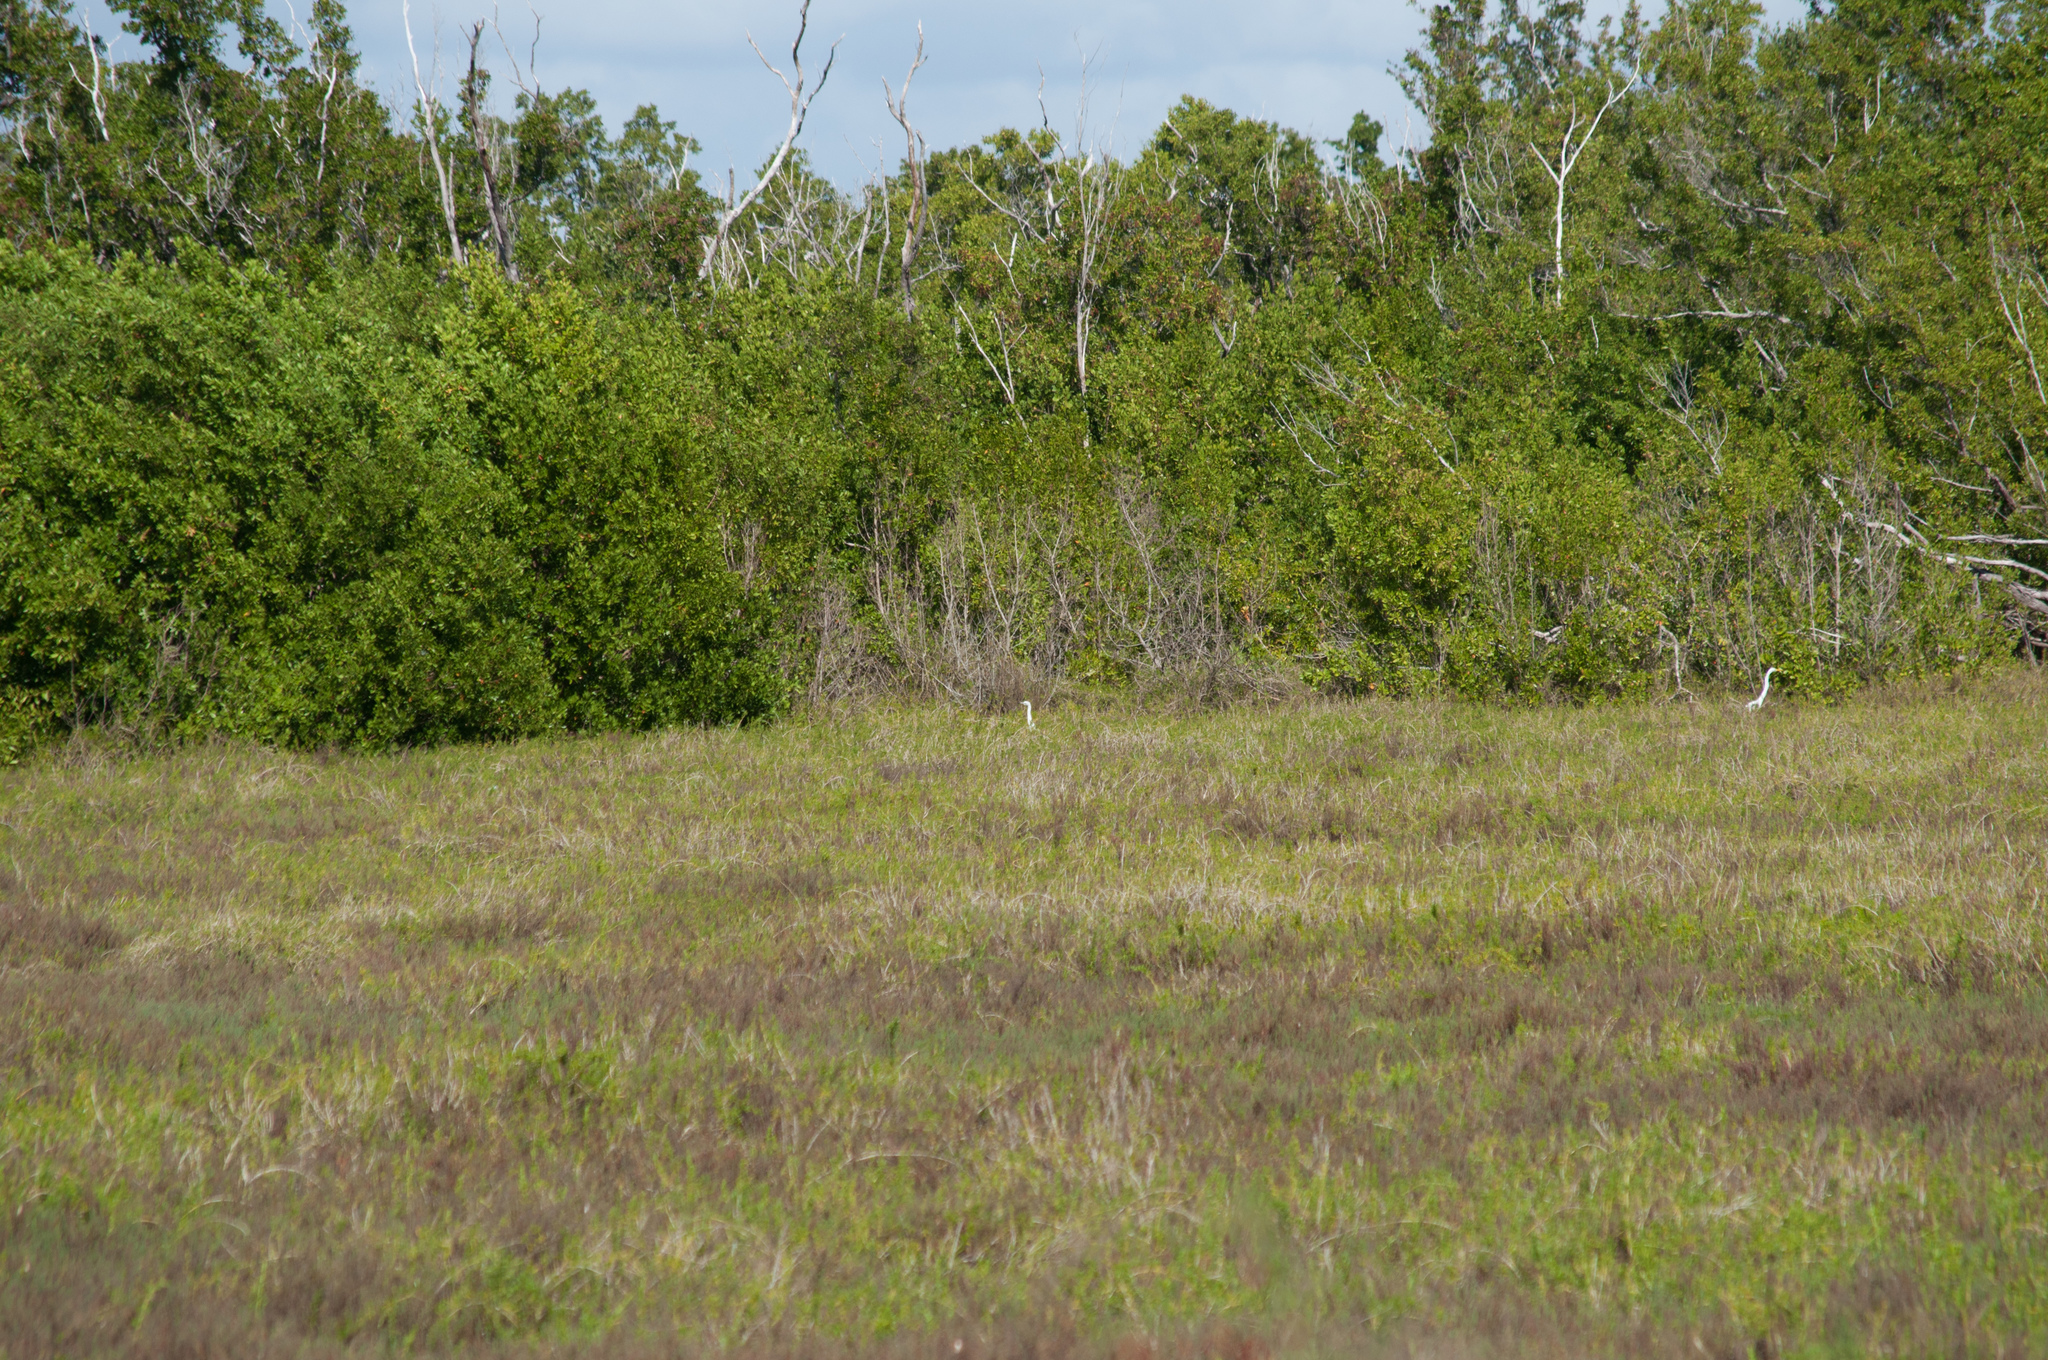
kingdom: Animalia
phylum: Chordata
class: Aves
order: Pelecaniformes
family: Ardeidae
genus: Ardea
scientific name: Ardea alba
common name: Great egret
